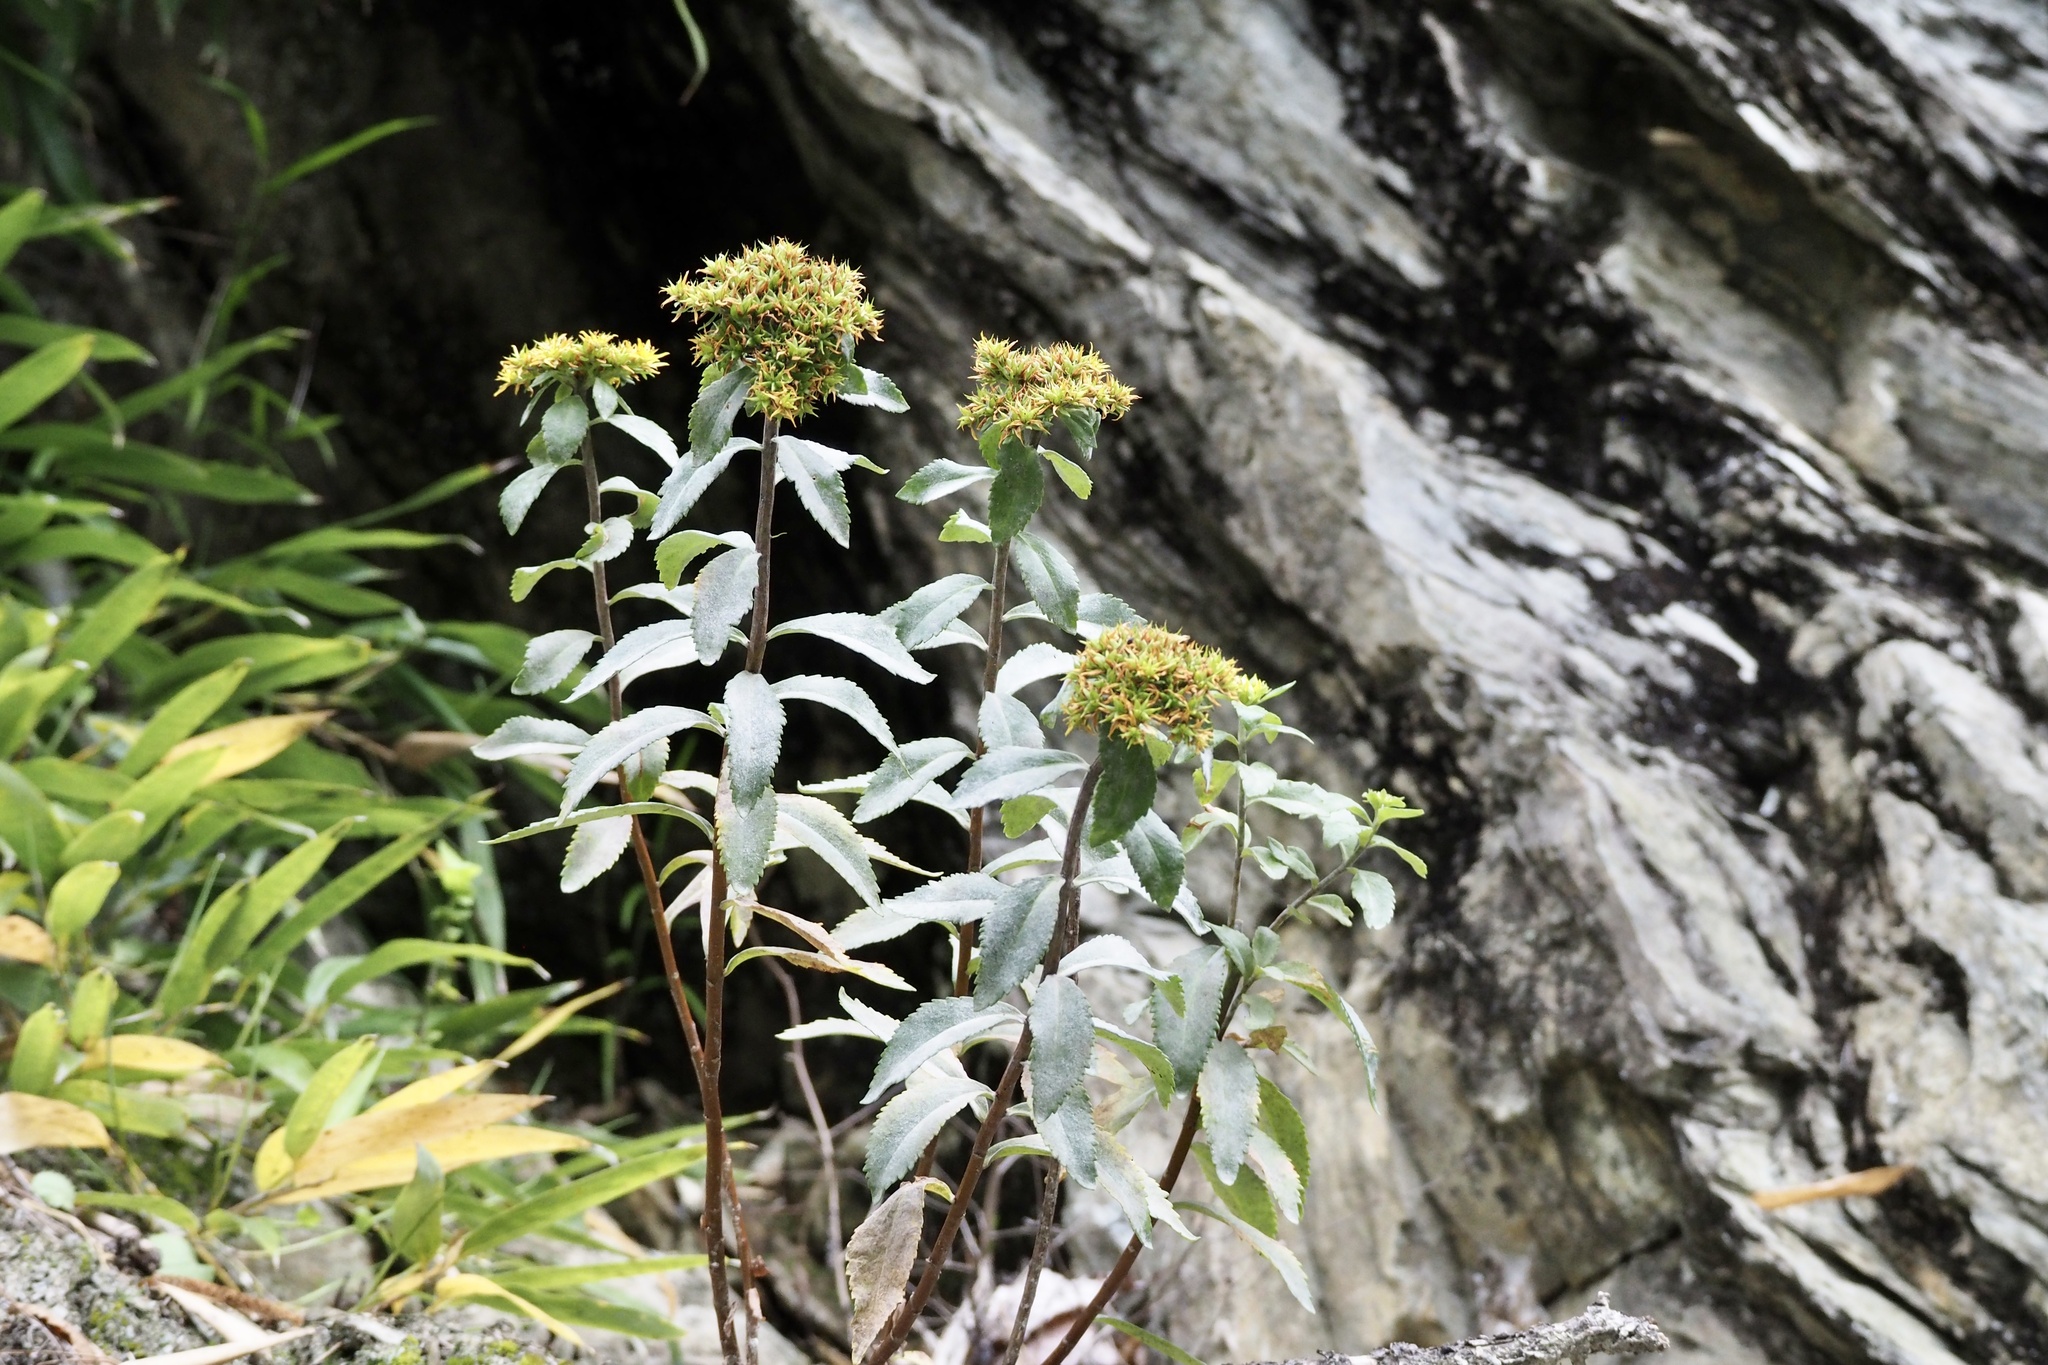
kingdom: Plantae
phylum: Tracheophyta
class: Magnoliopsida
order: Saxifragales
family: Crassulaceae
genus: Phedimus
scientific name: Phedimus aizoon
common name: Orpin aizoon
